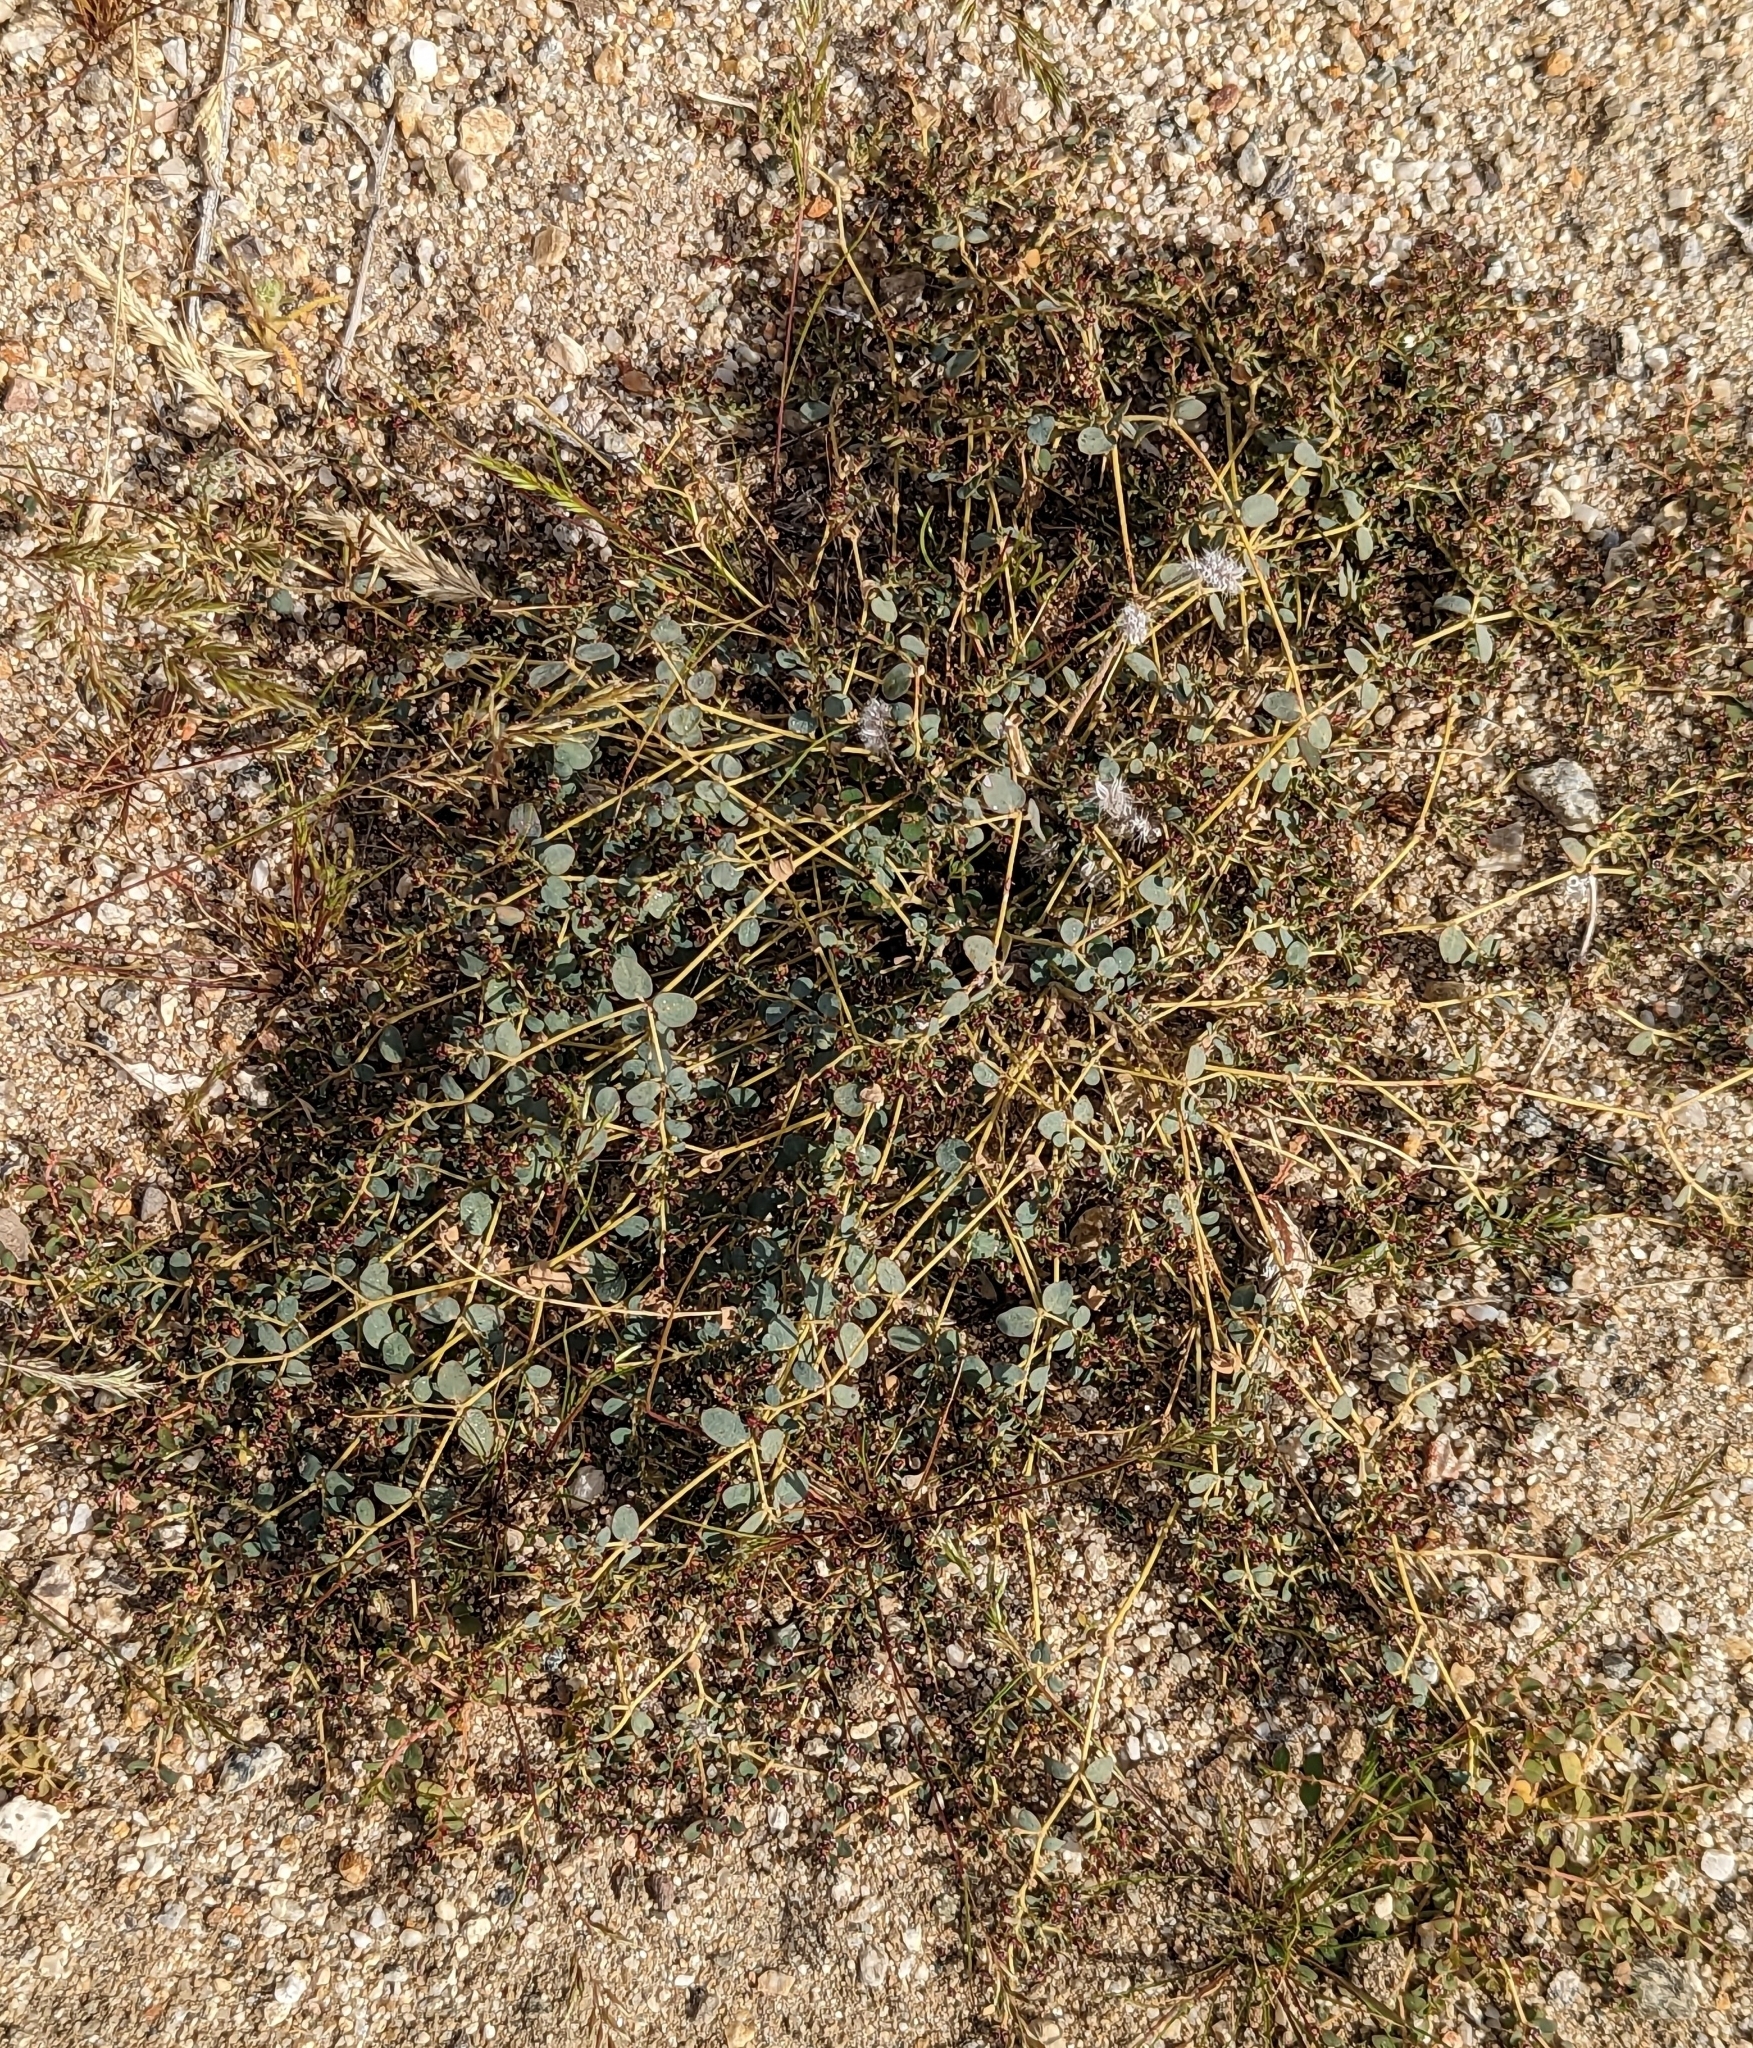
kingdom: Plantae
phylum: Tracheophyta
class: Magnoliopsida
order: Malpighiales
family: Euphorbiaceae
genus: Euphorbia
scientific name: Euphorbia polycarpa
